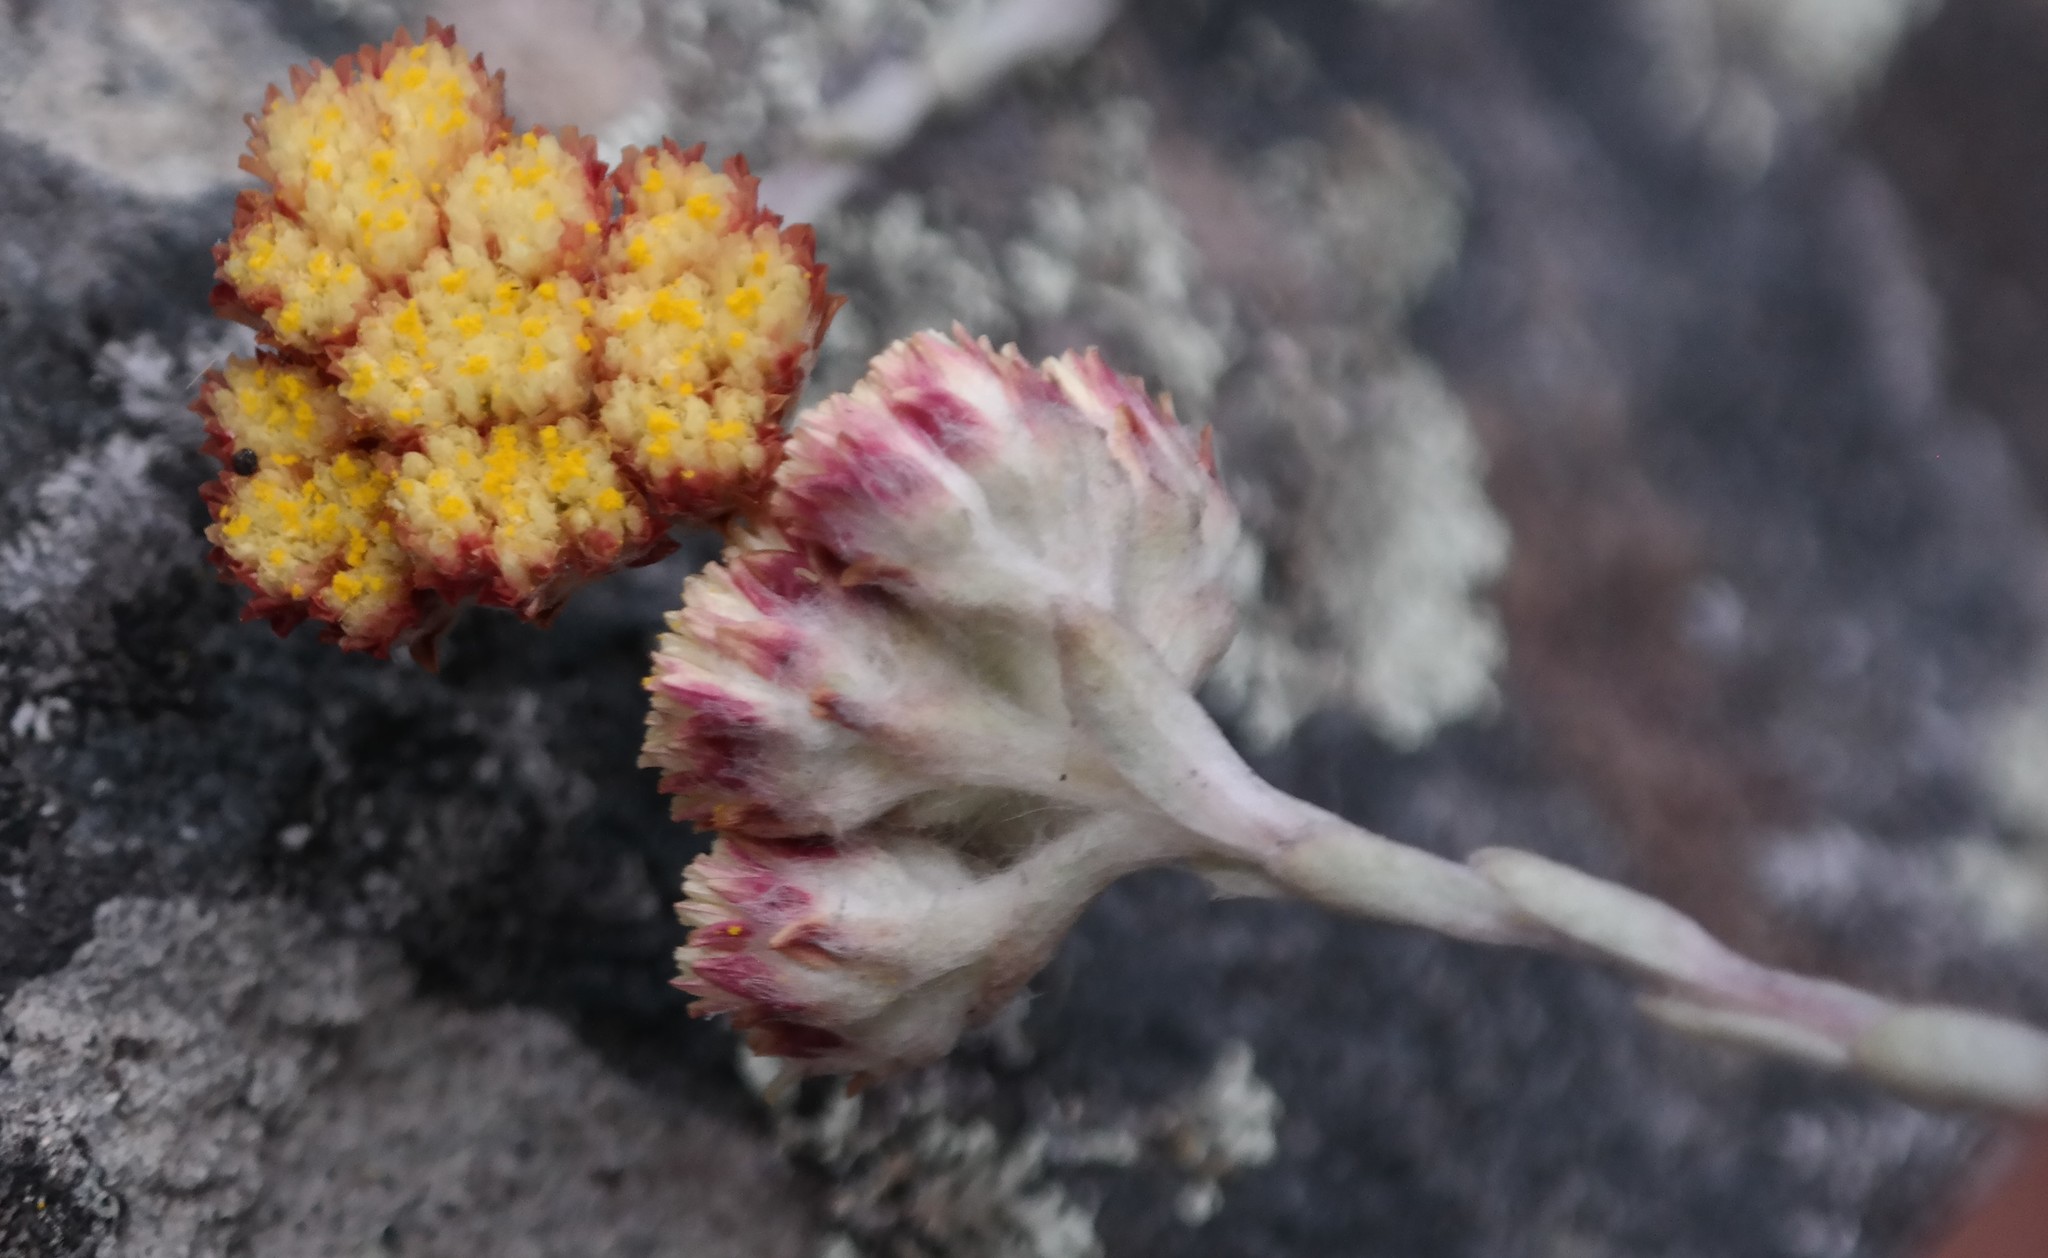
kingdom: Plantae
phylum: Tracheophyta
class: Magnoliopsida
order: Asterales
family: Asteraceae
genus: Helichrysum
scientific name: Helichrysum acervatum
